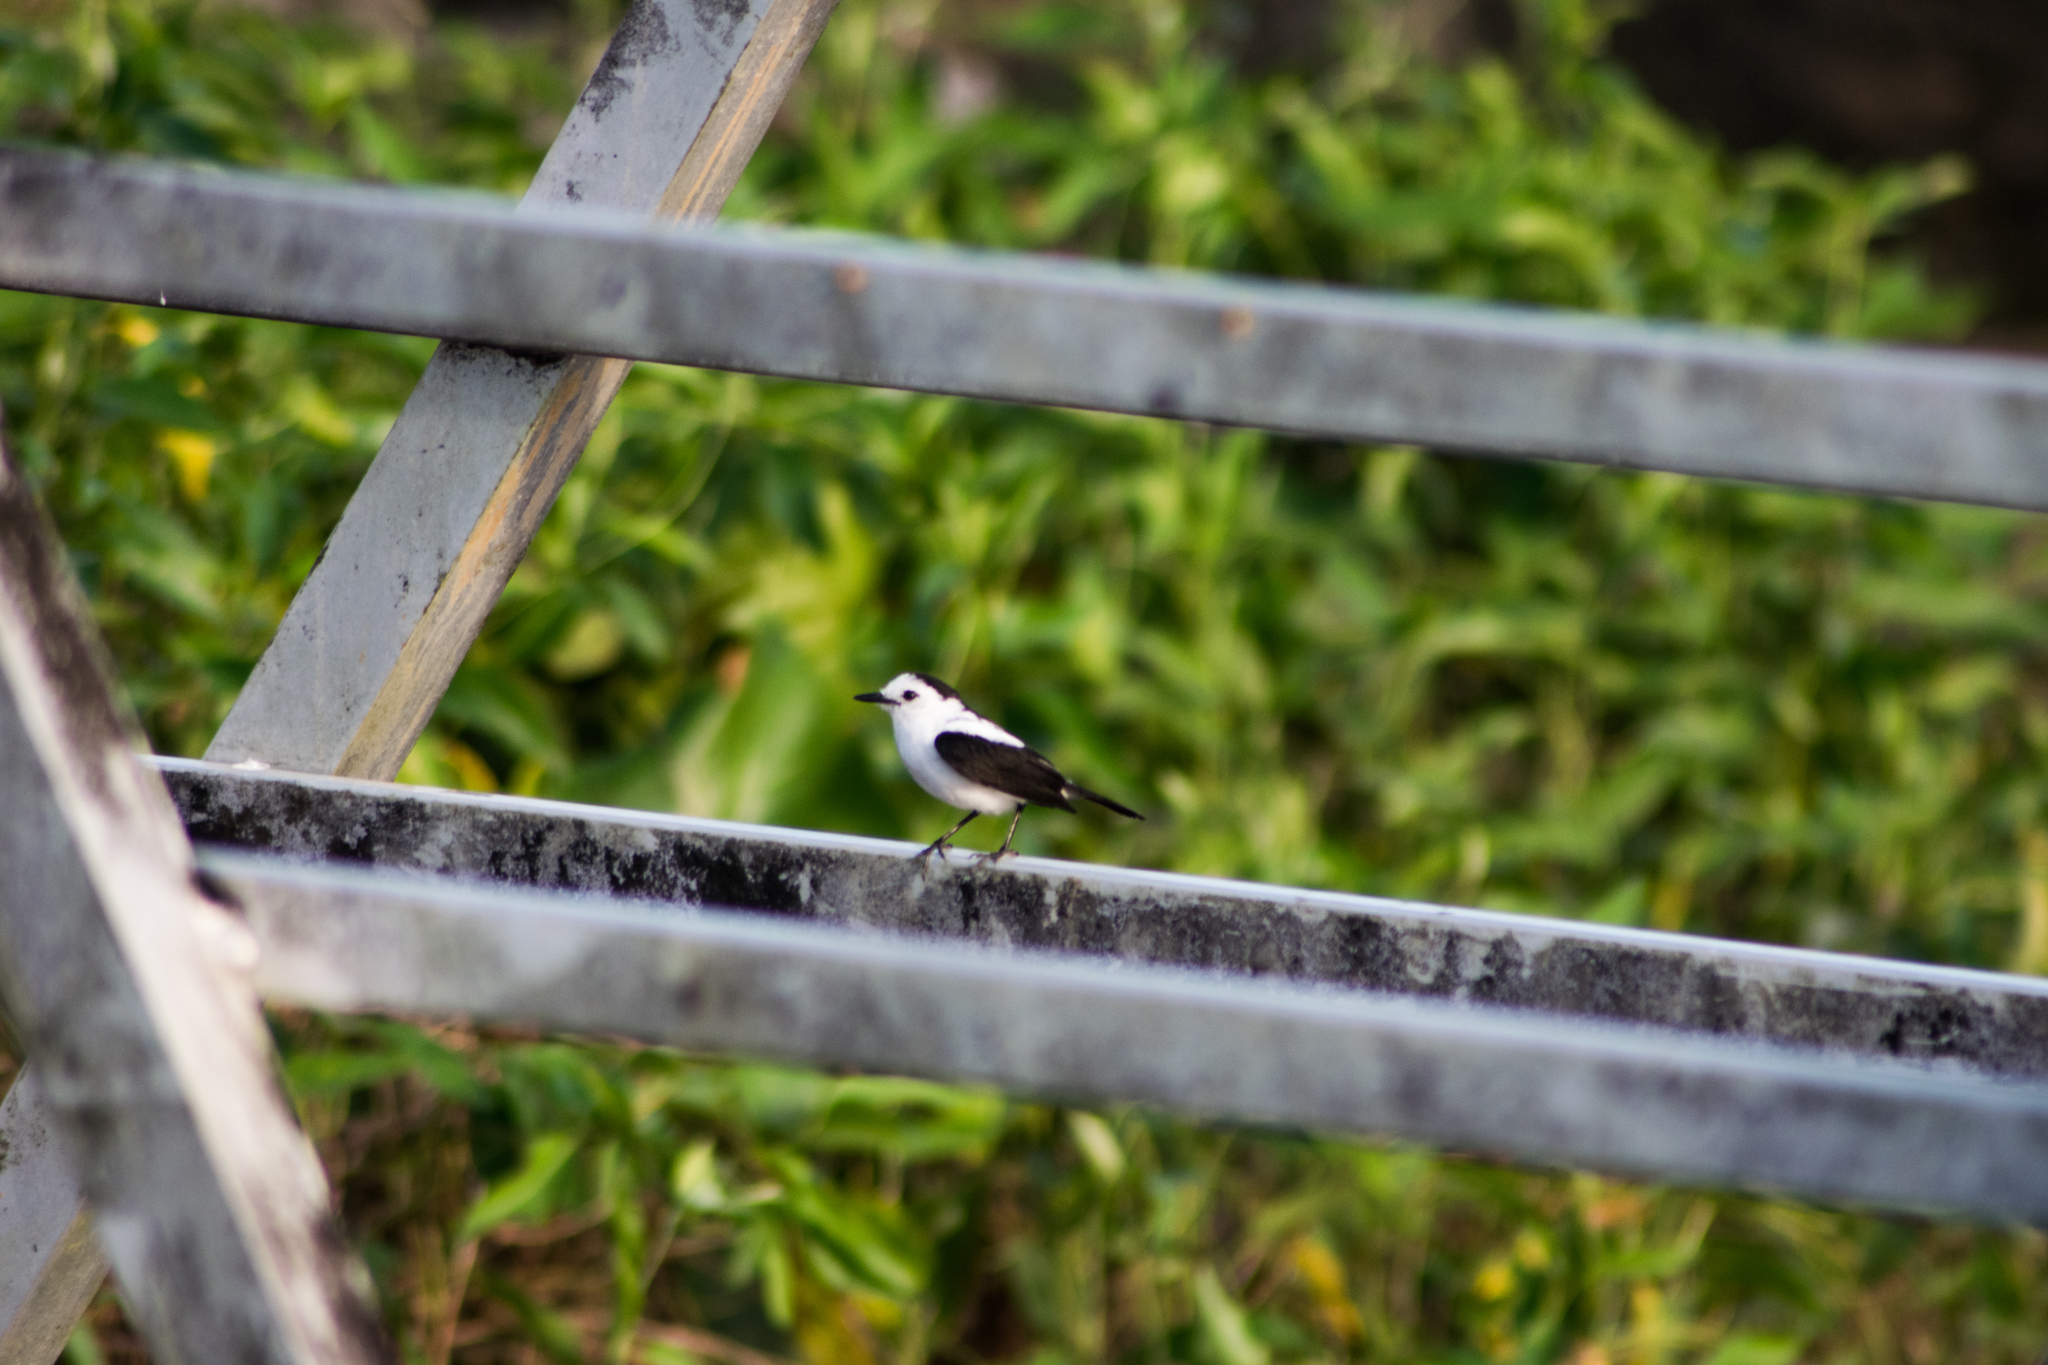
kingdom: Animalia
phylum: Chordata
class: Aves
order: Passeriformes
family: Tyrannidae
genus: Fluvicola
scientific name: Fluvicola pica
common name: Pied water-tyrant
